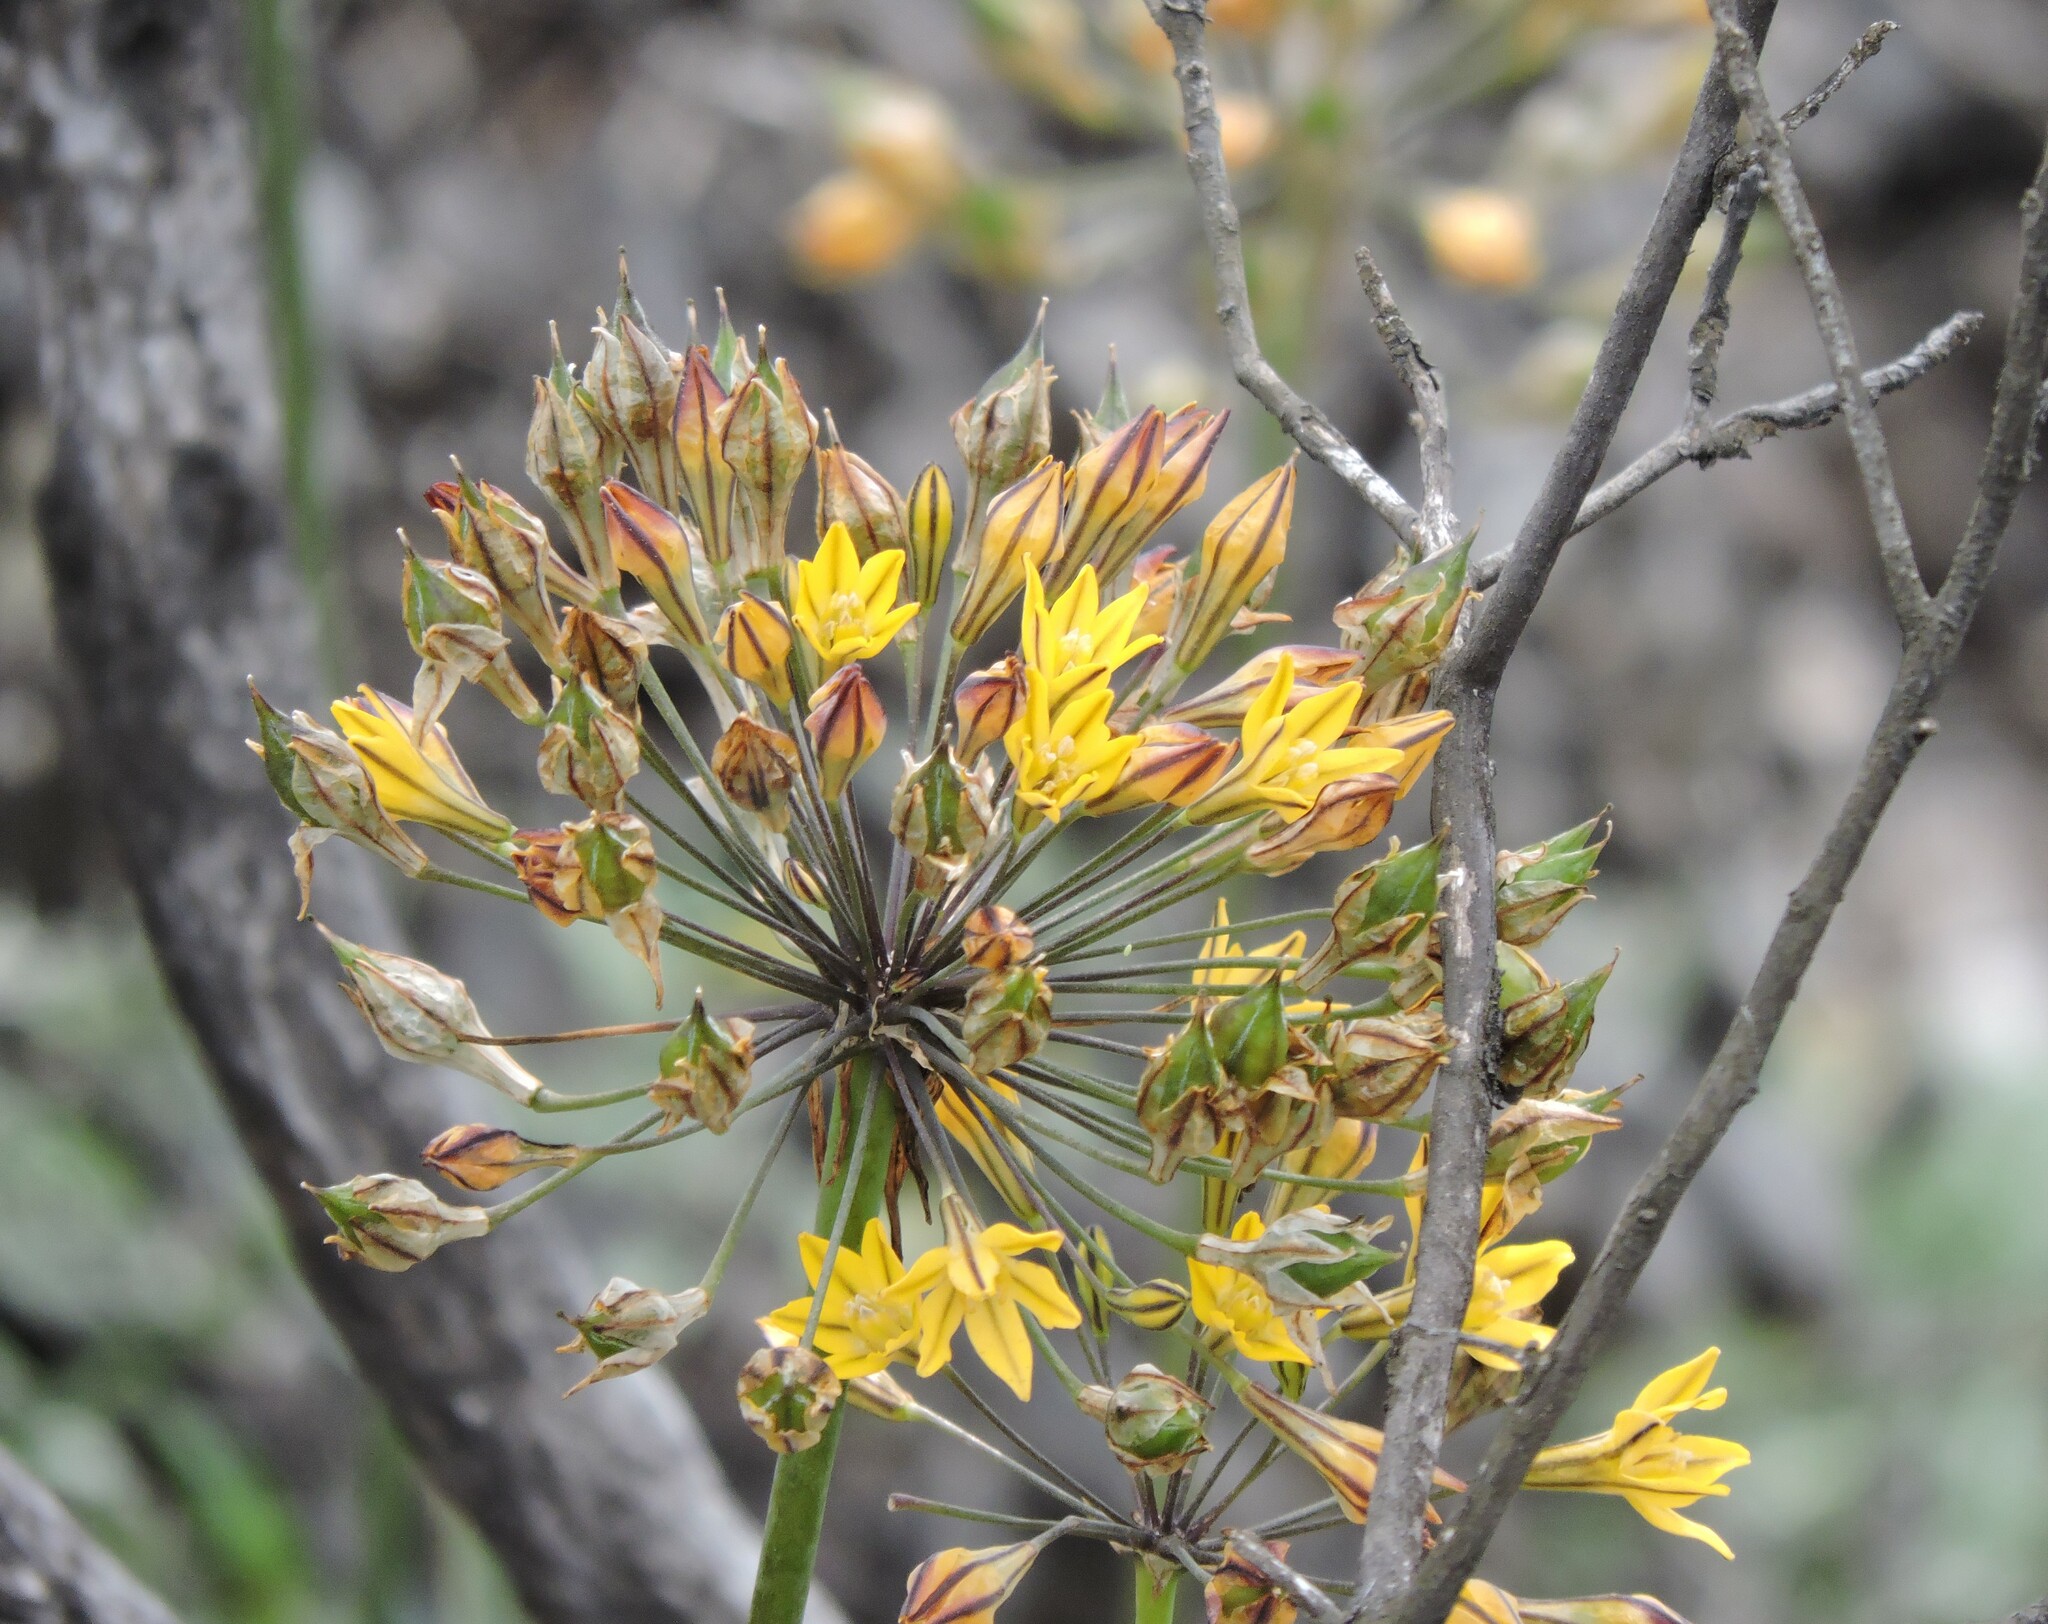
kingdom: Plantae
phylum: Tracheophyta
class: Liliopsida
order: Asparagales
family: Asparagaceae
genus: Triteleia
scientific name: Triteleia lugens
